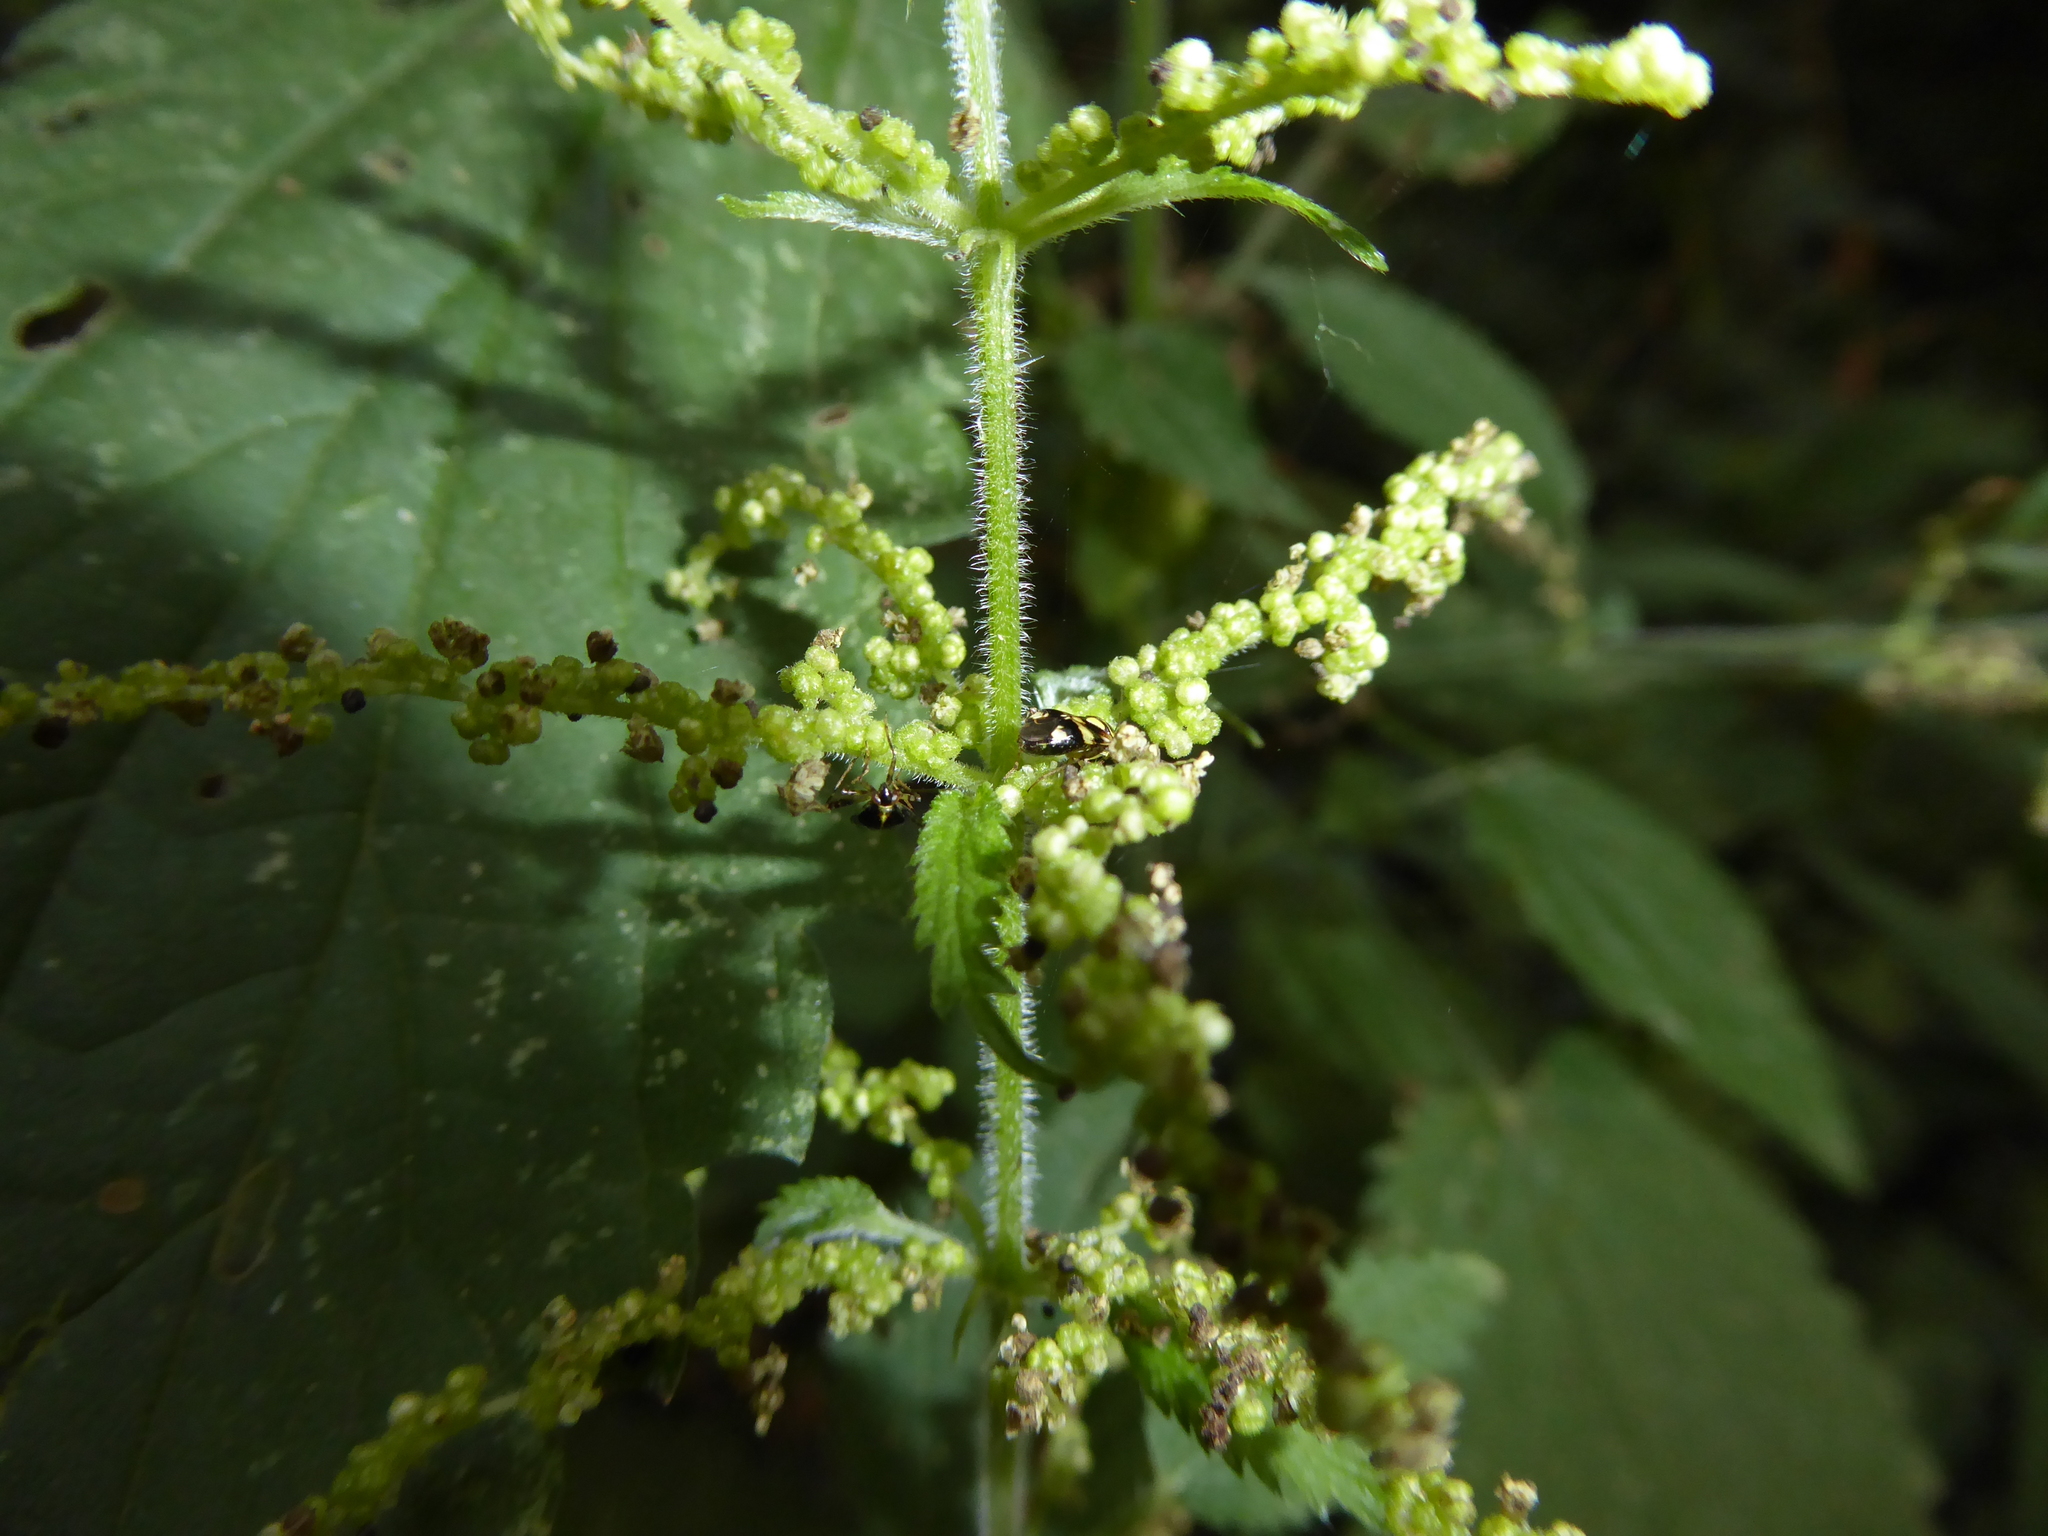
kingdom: Animalia
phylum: Arthropoda
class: Insecta
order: Hemiptera
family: Miridae
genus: Liocoris
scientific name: Liocoris tripustulatus
